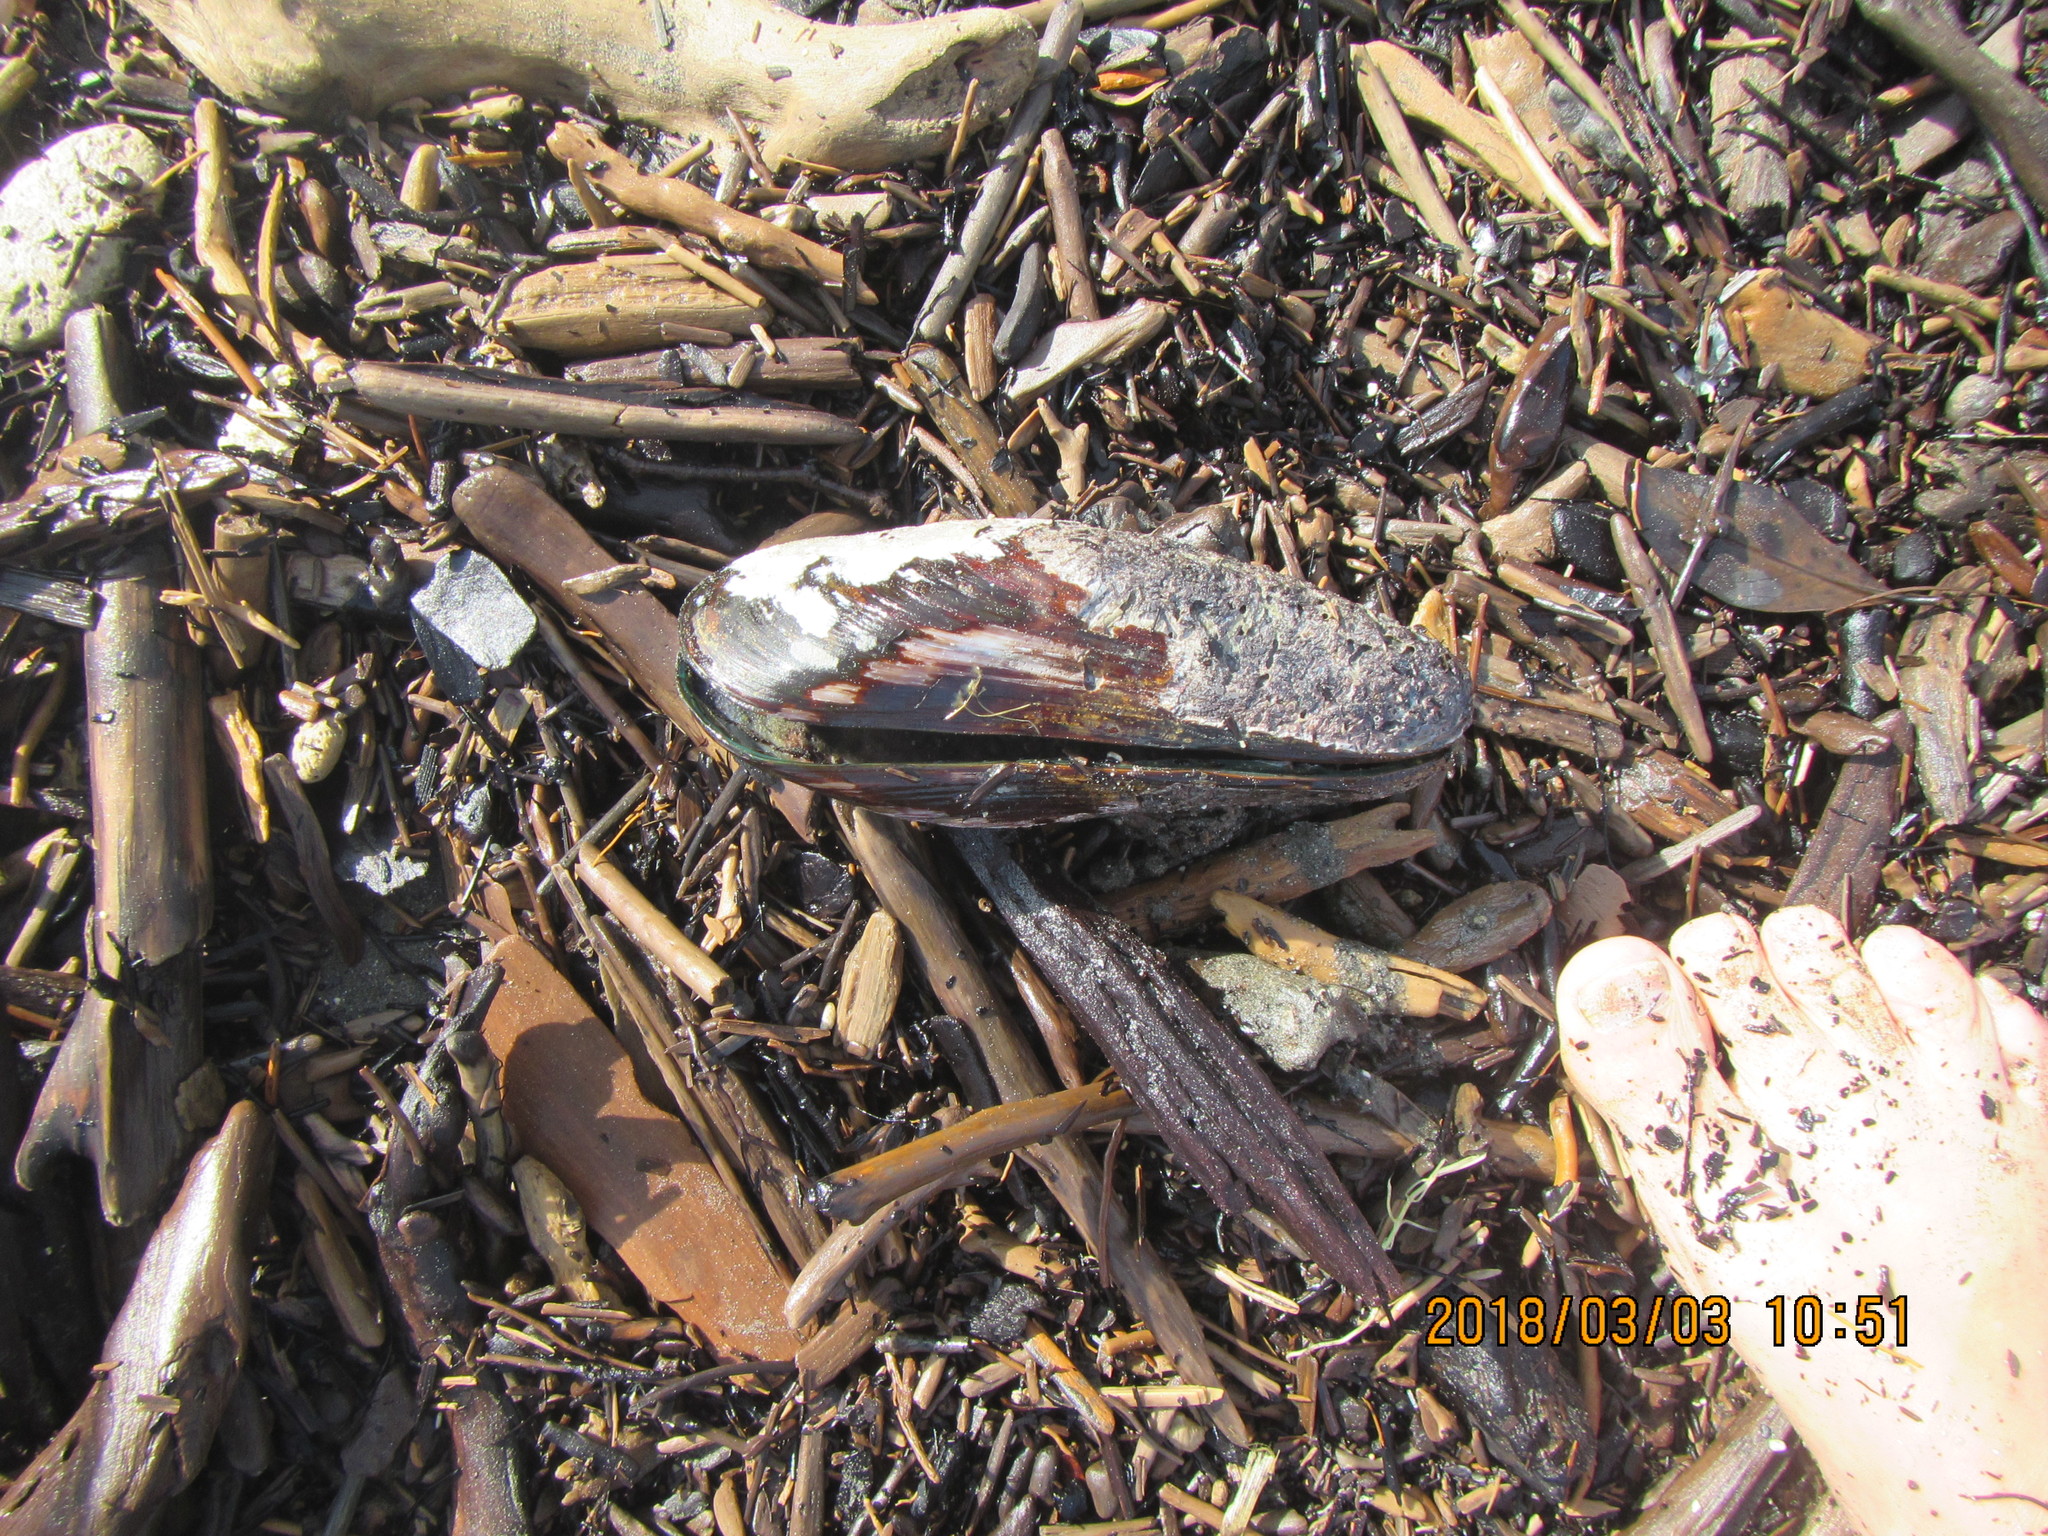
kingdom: Animalia
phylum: Mollusca
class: Bivalvia
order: Mytilida
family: Mytilidae
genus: Perna
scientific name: Perna canaliculus
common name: New zealand greenshelltm
